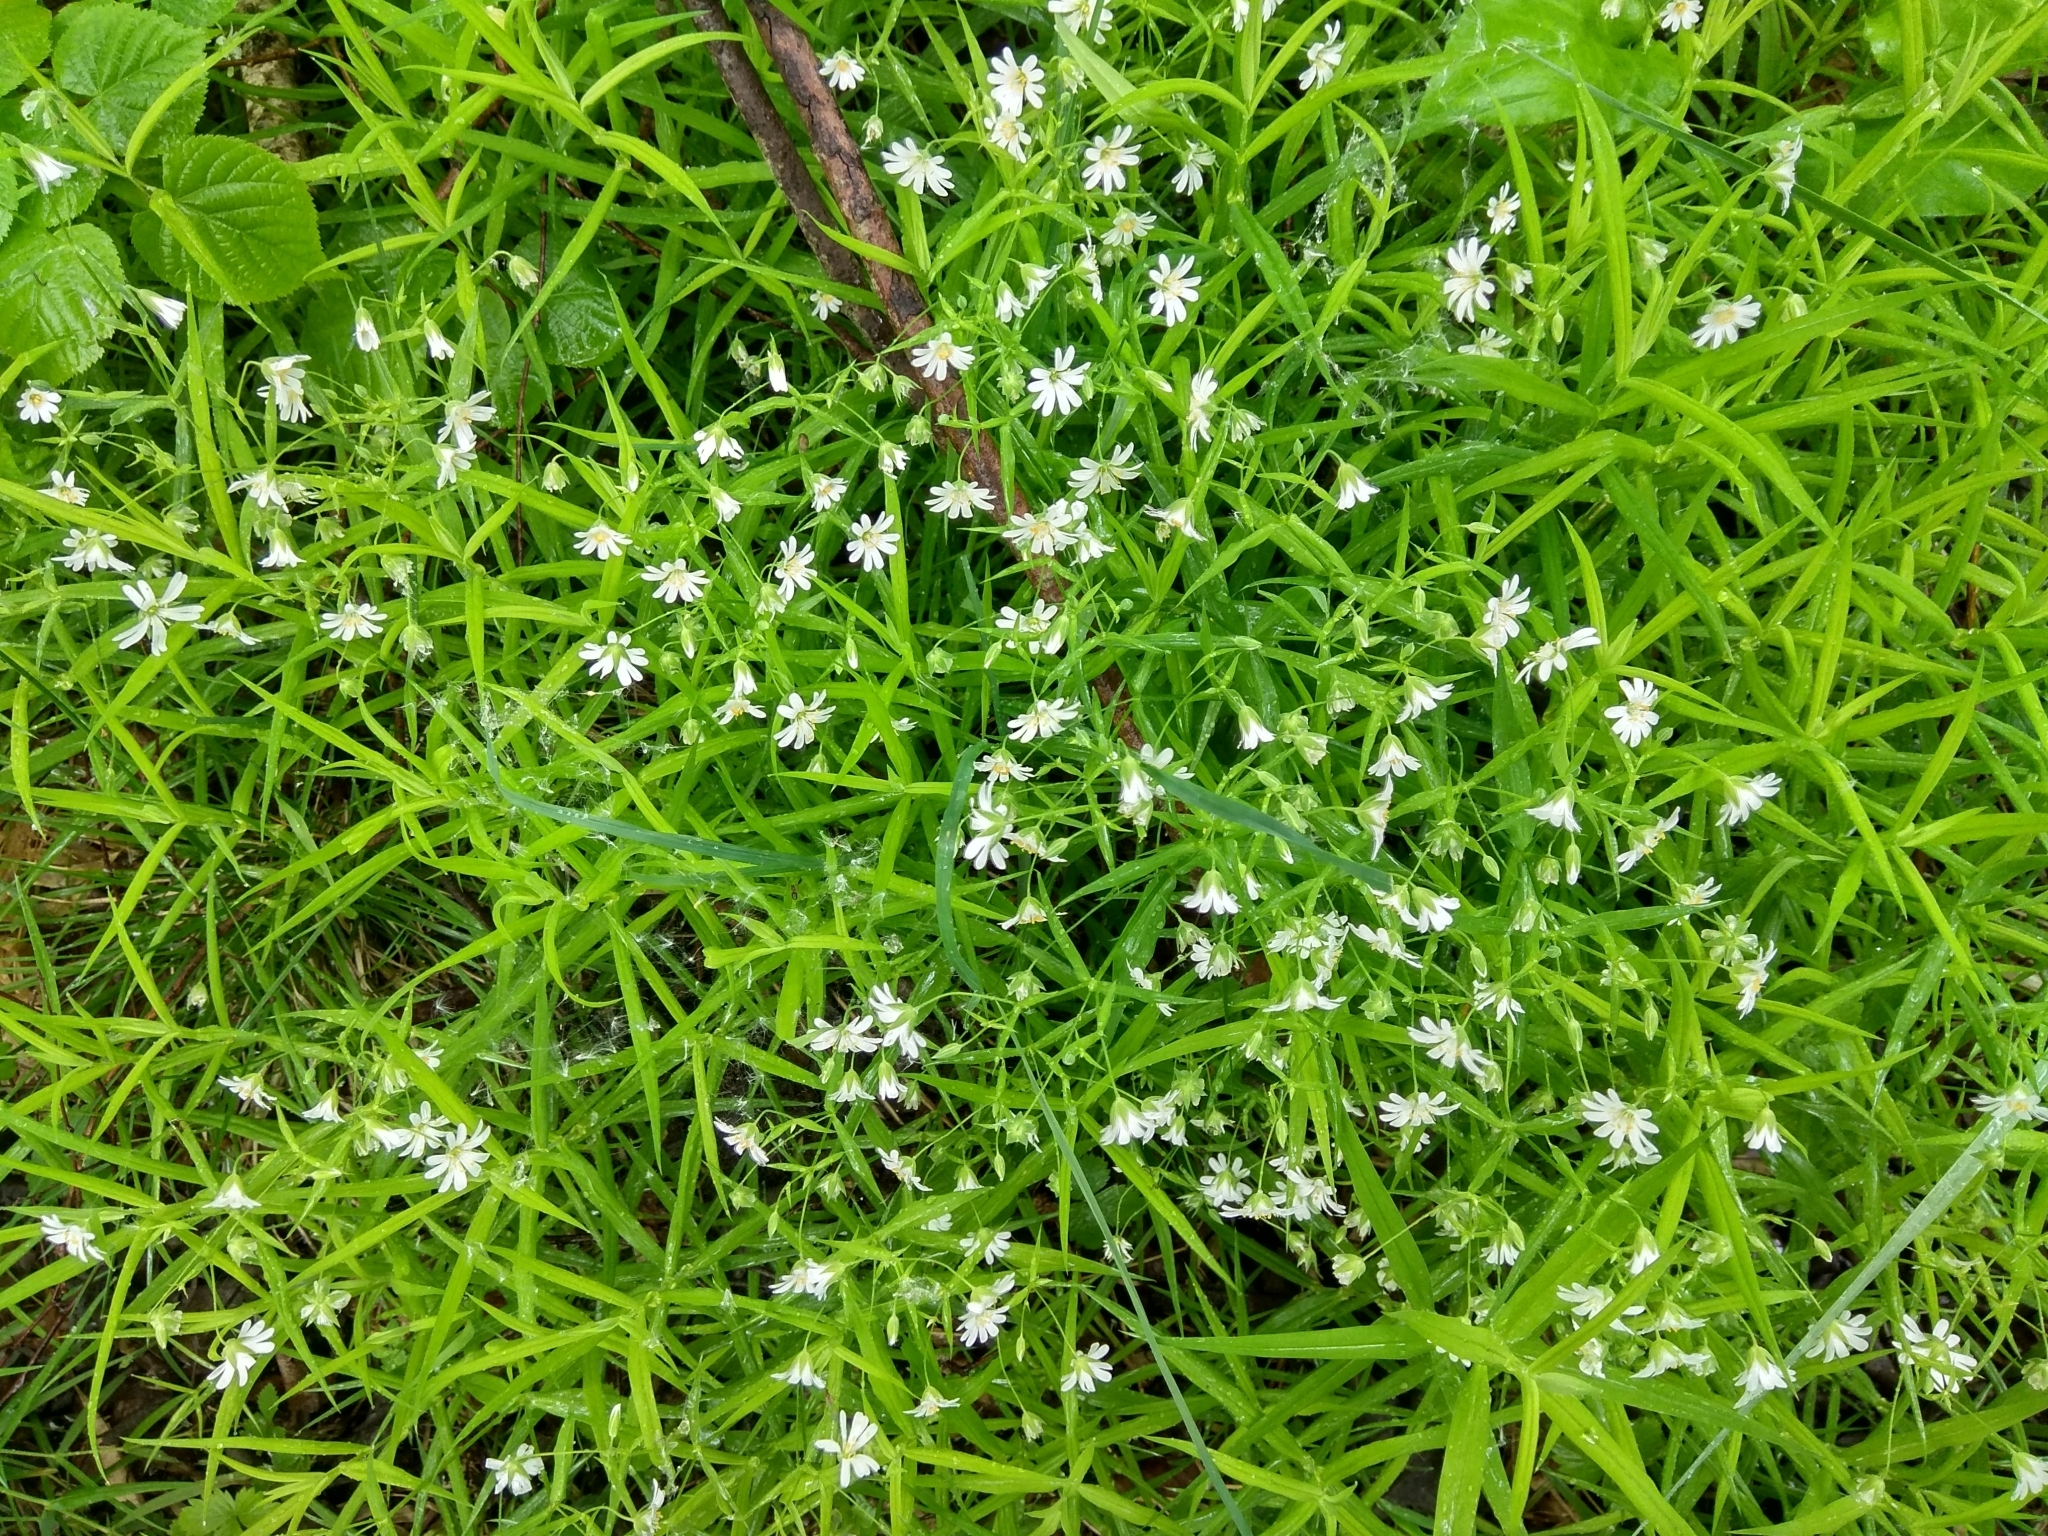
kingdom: Plantae
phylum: Tracheophyta
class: Magnoliopsida
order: Caryophyllales
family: Caryophyllaceae
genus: Rabelera
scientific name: Rabelera holostea
